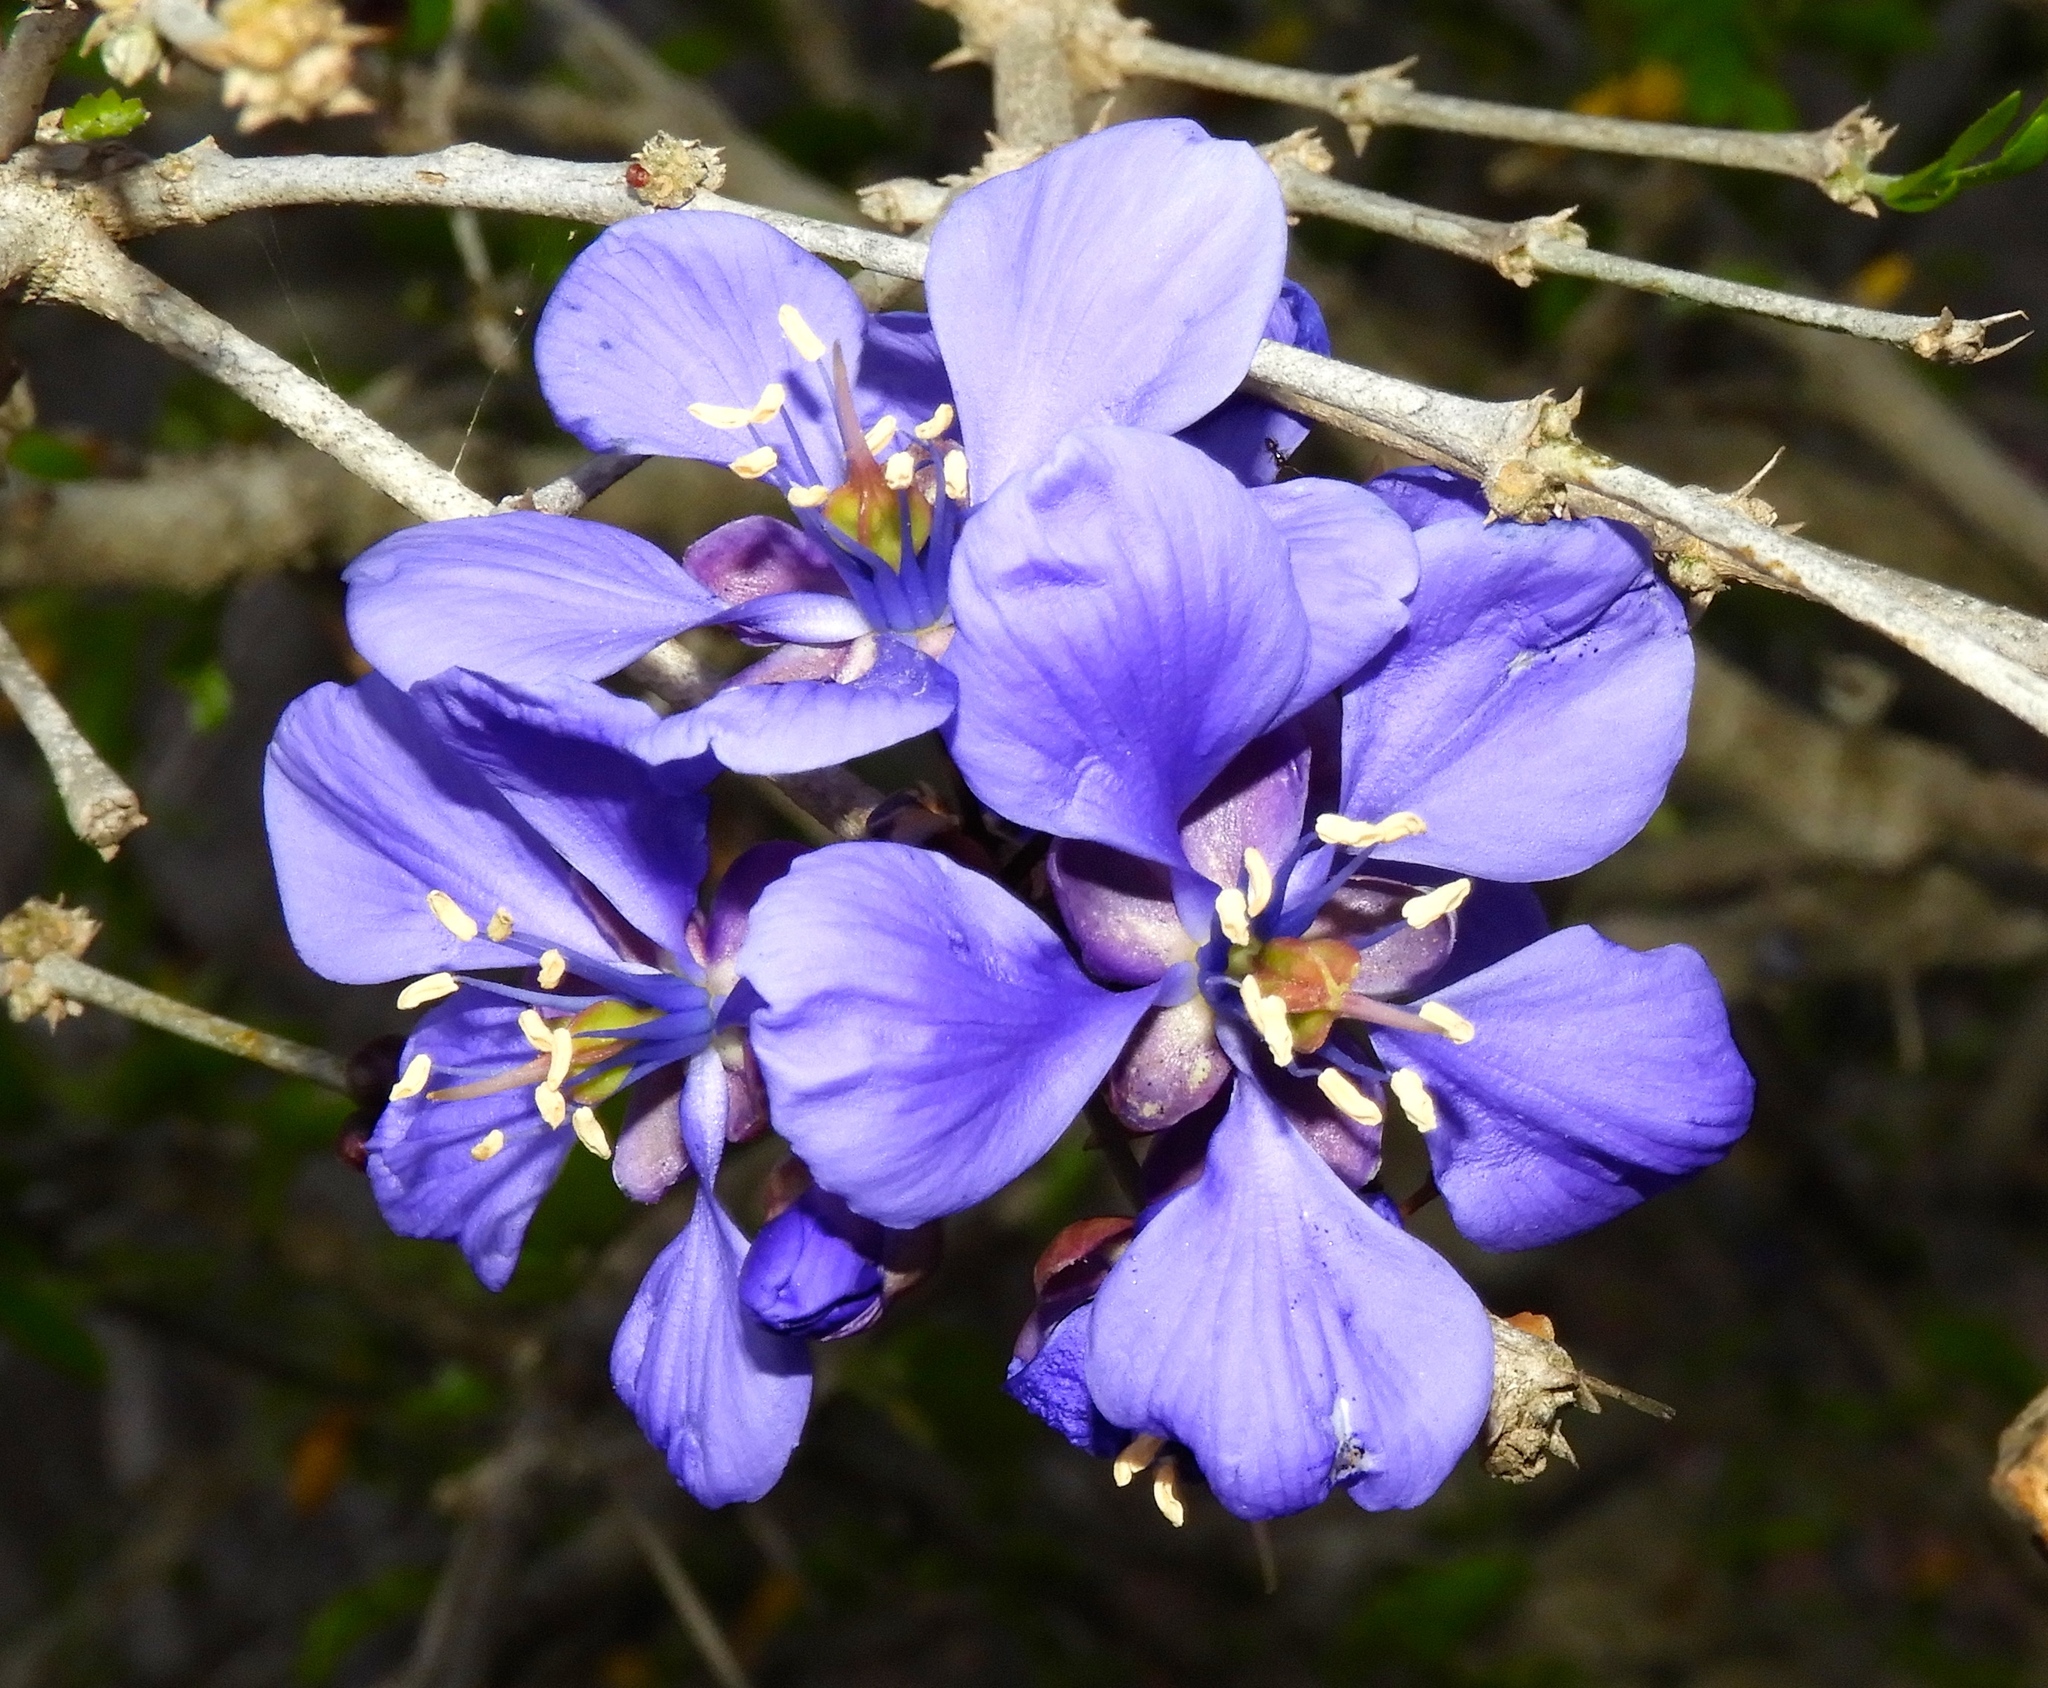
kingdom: Plantae
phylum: Tracheophyta
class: Magnoliopsida
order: Zygophyllales
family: Zygophyllaceae
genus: Guaiacum
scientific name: Guaiacum coulteri
